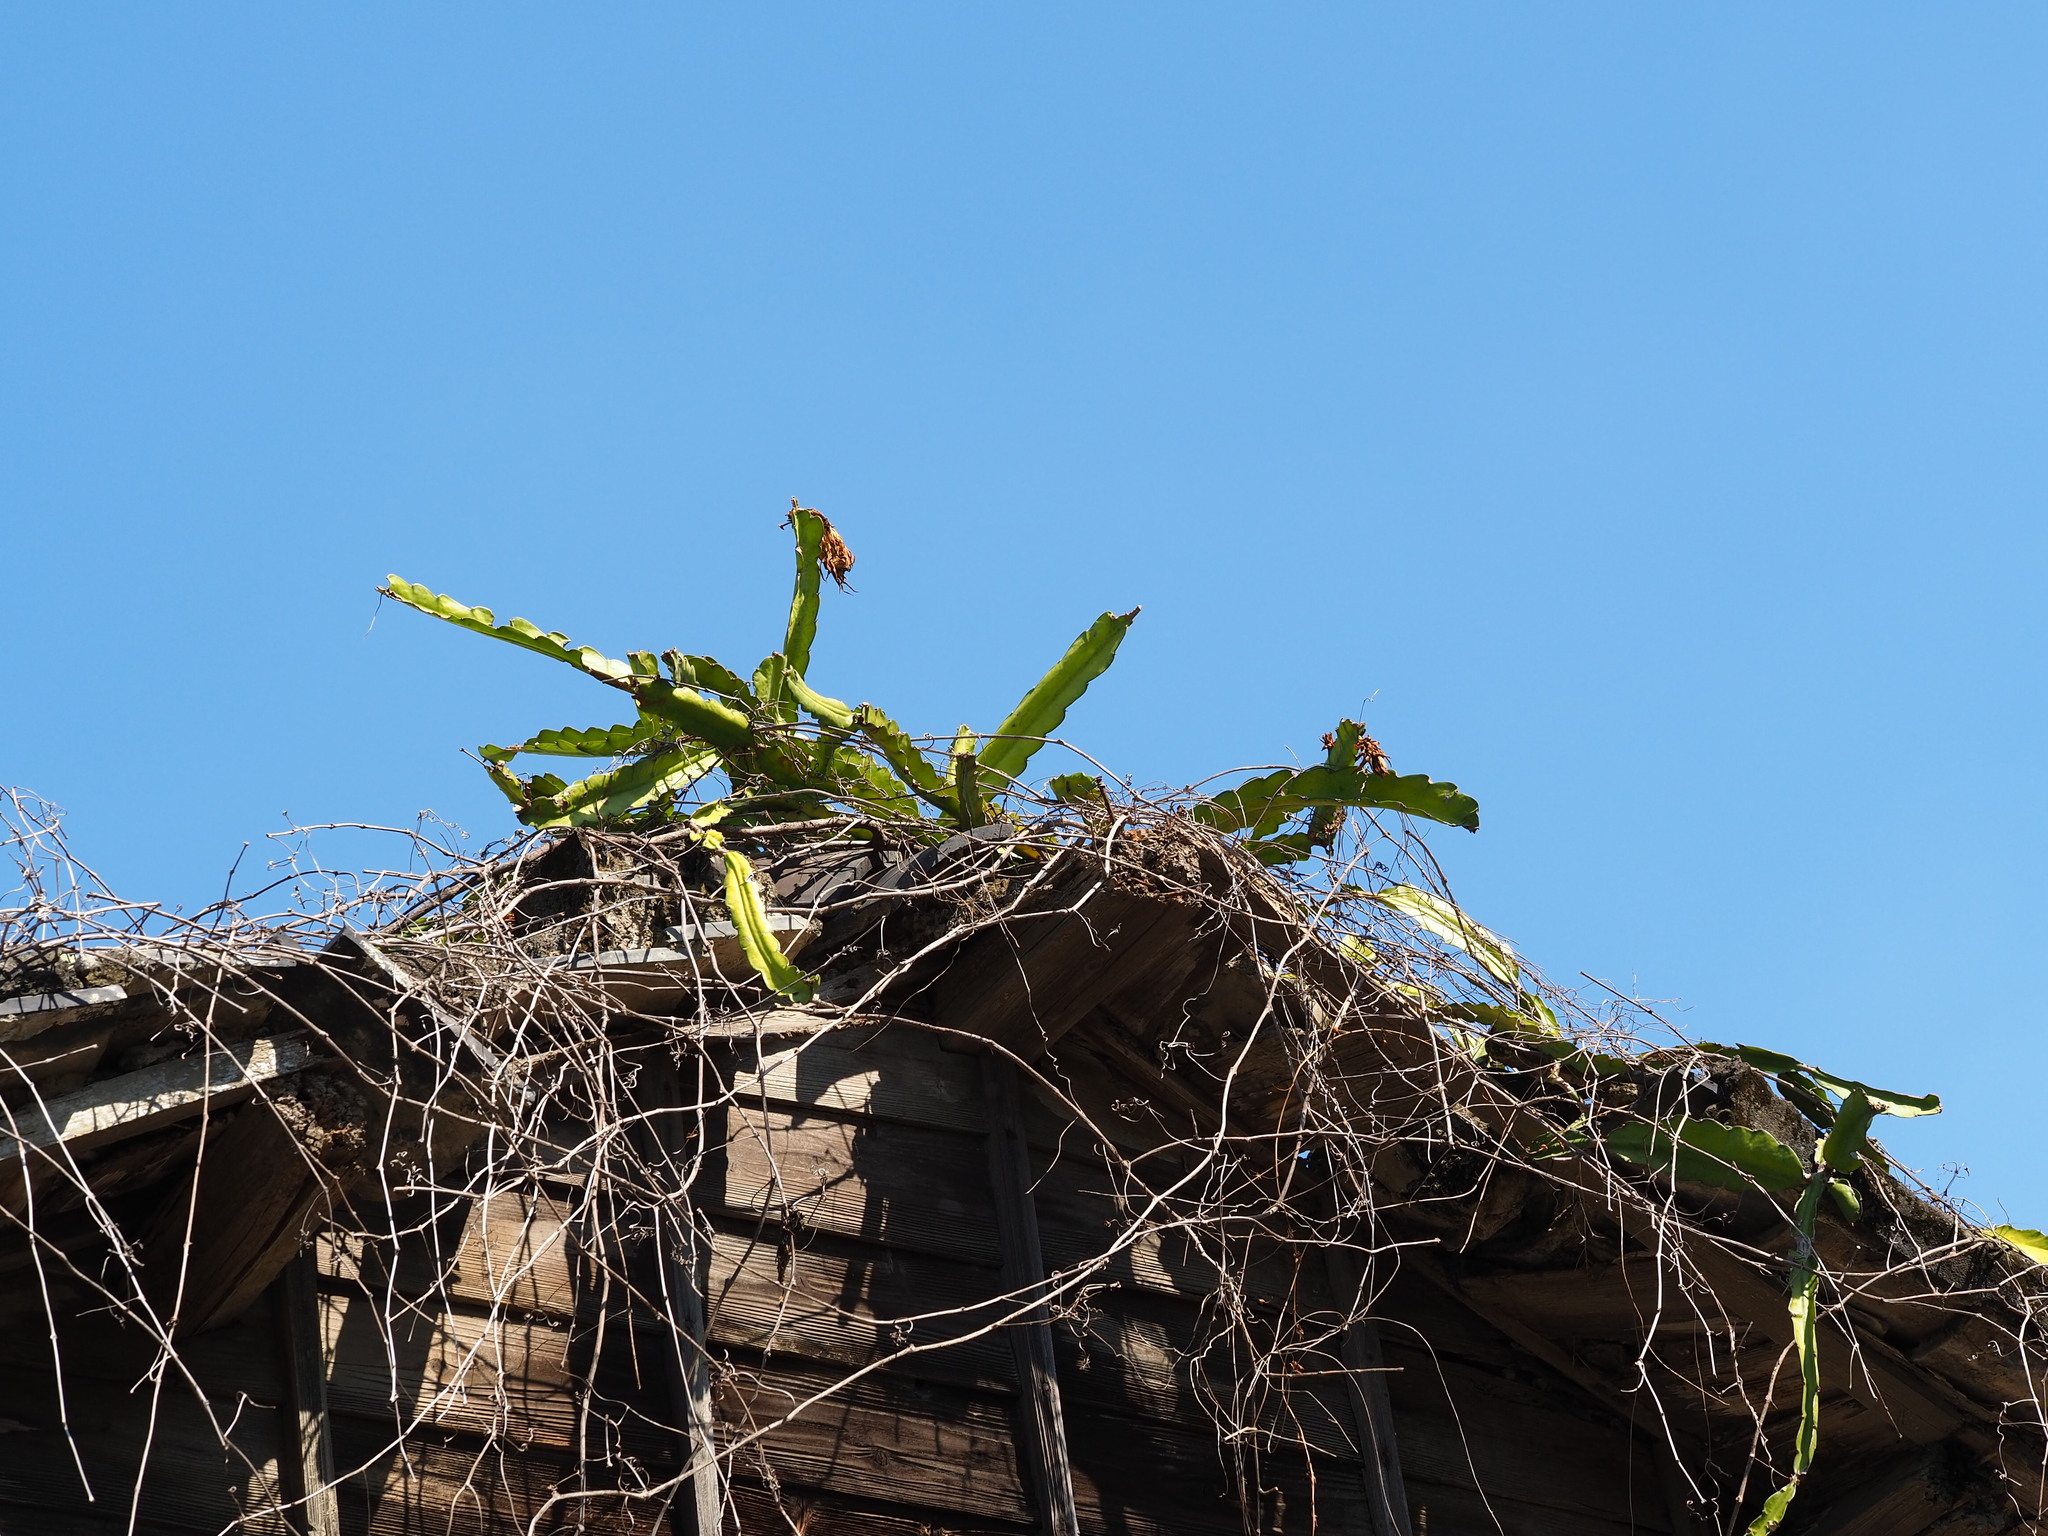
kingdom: Plantae
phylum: Tracheophyta
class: Magnoliopsida
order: Caryophyllales
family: Cactaceae
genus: Selenicereus
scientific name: Selenicereus undatus
